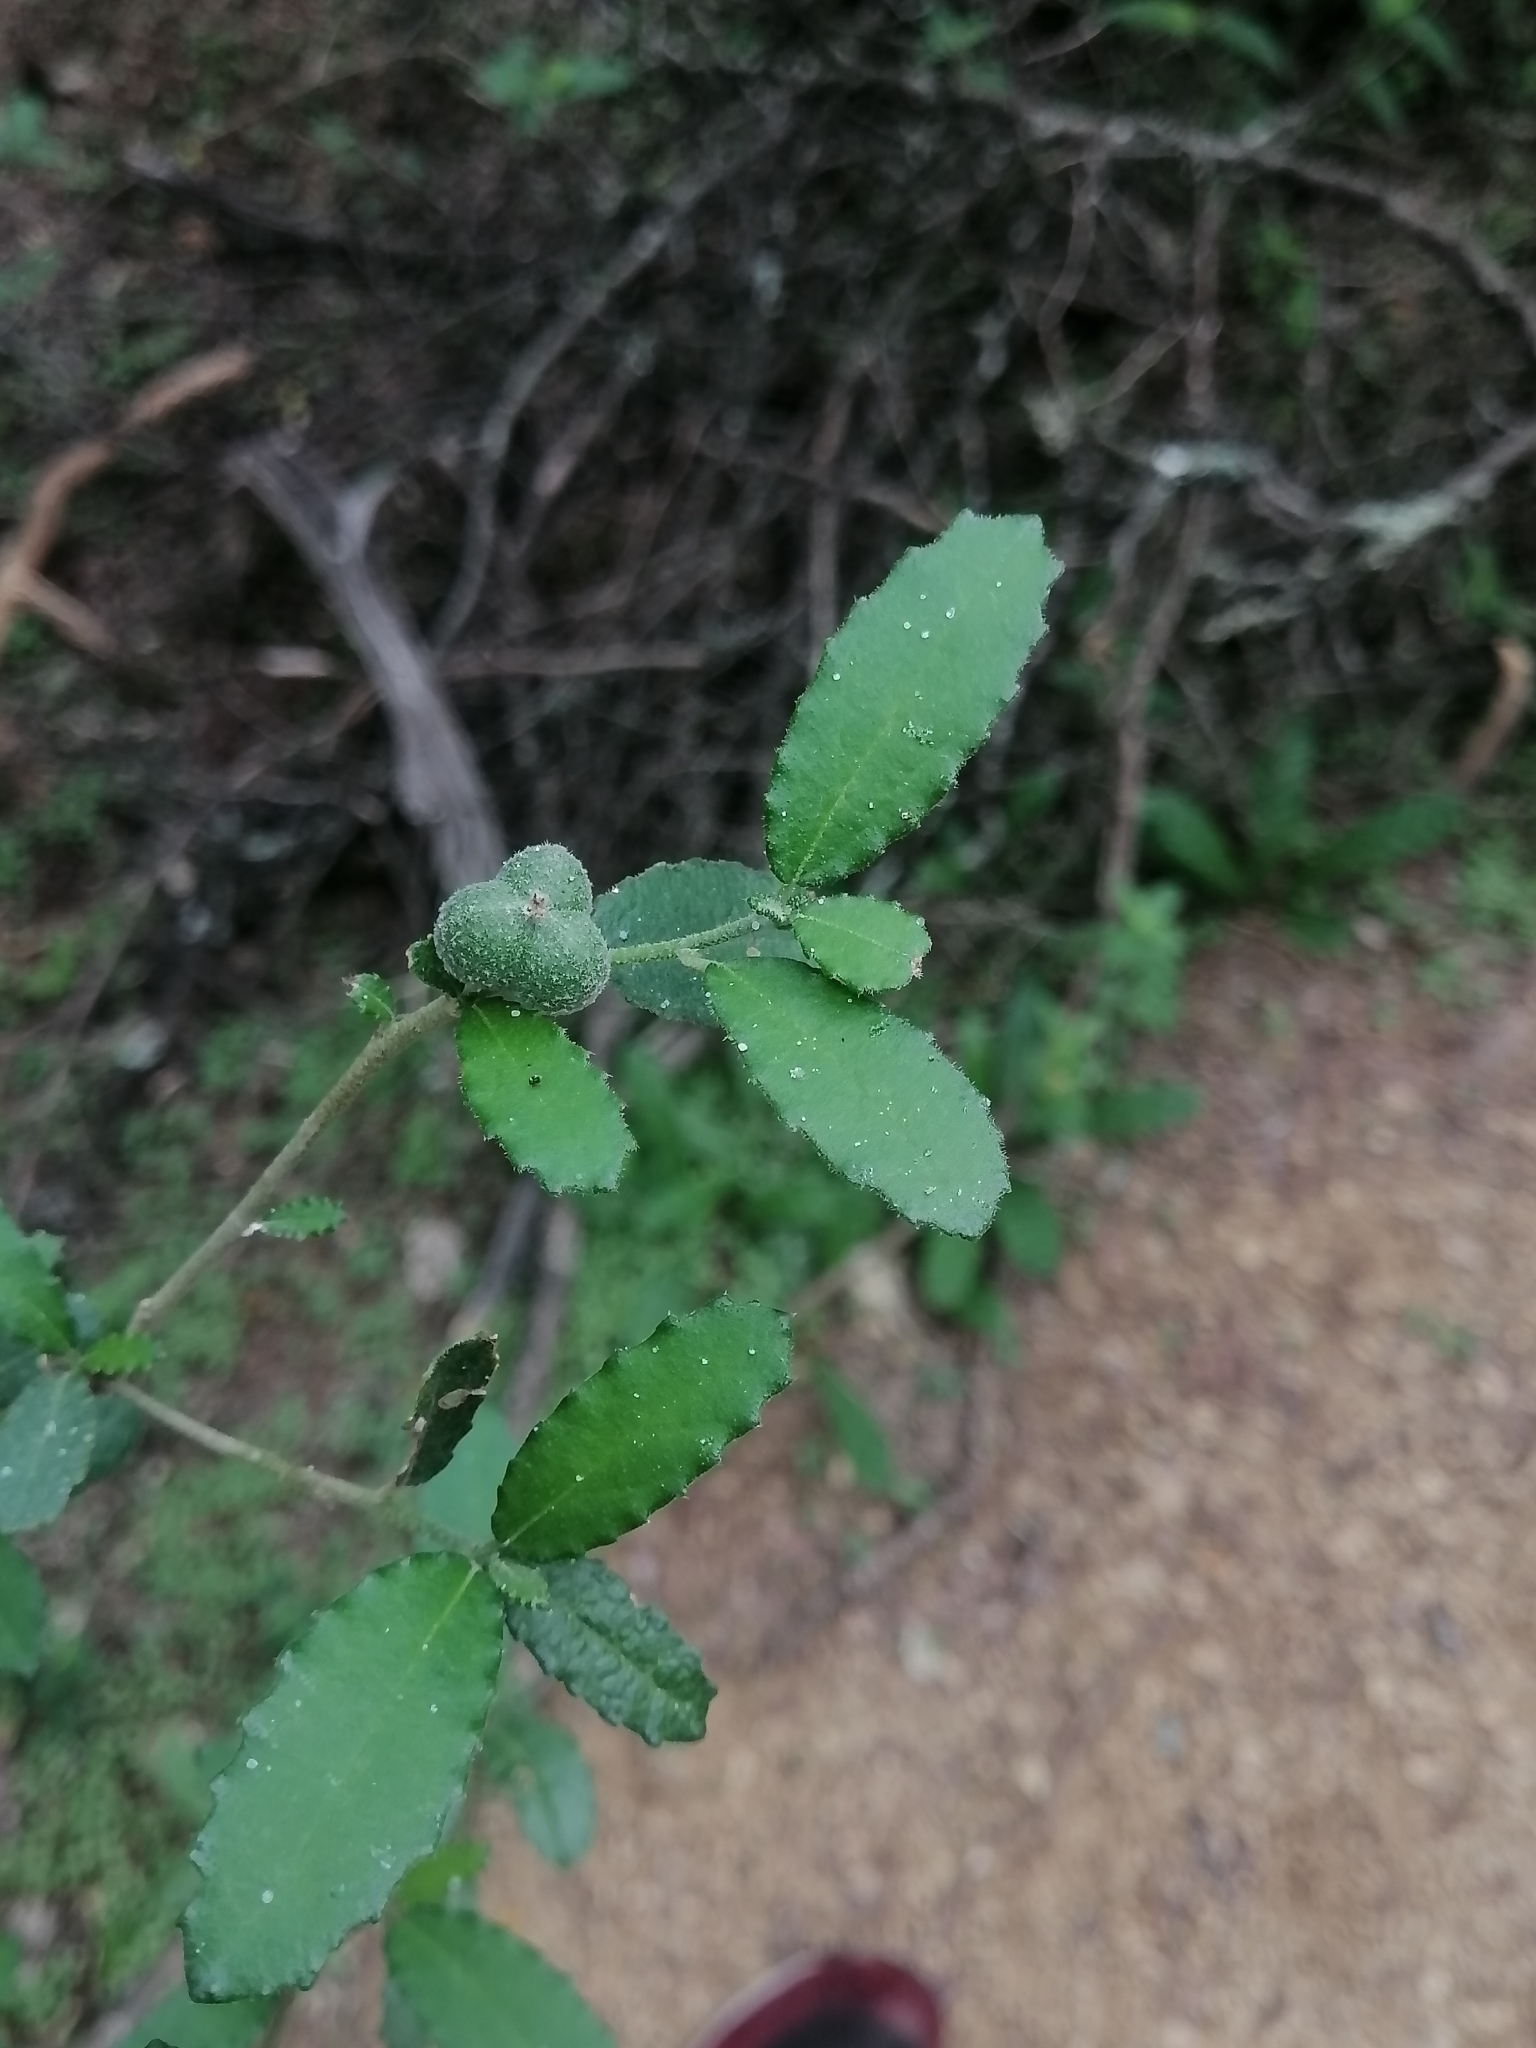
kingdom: Plantae
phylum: Tracheophyta
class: Magnoliopsida
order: Malpighiales
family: Euphorbiaceae
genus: Bernardia
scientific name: Bernardia myricifolia
